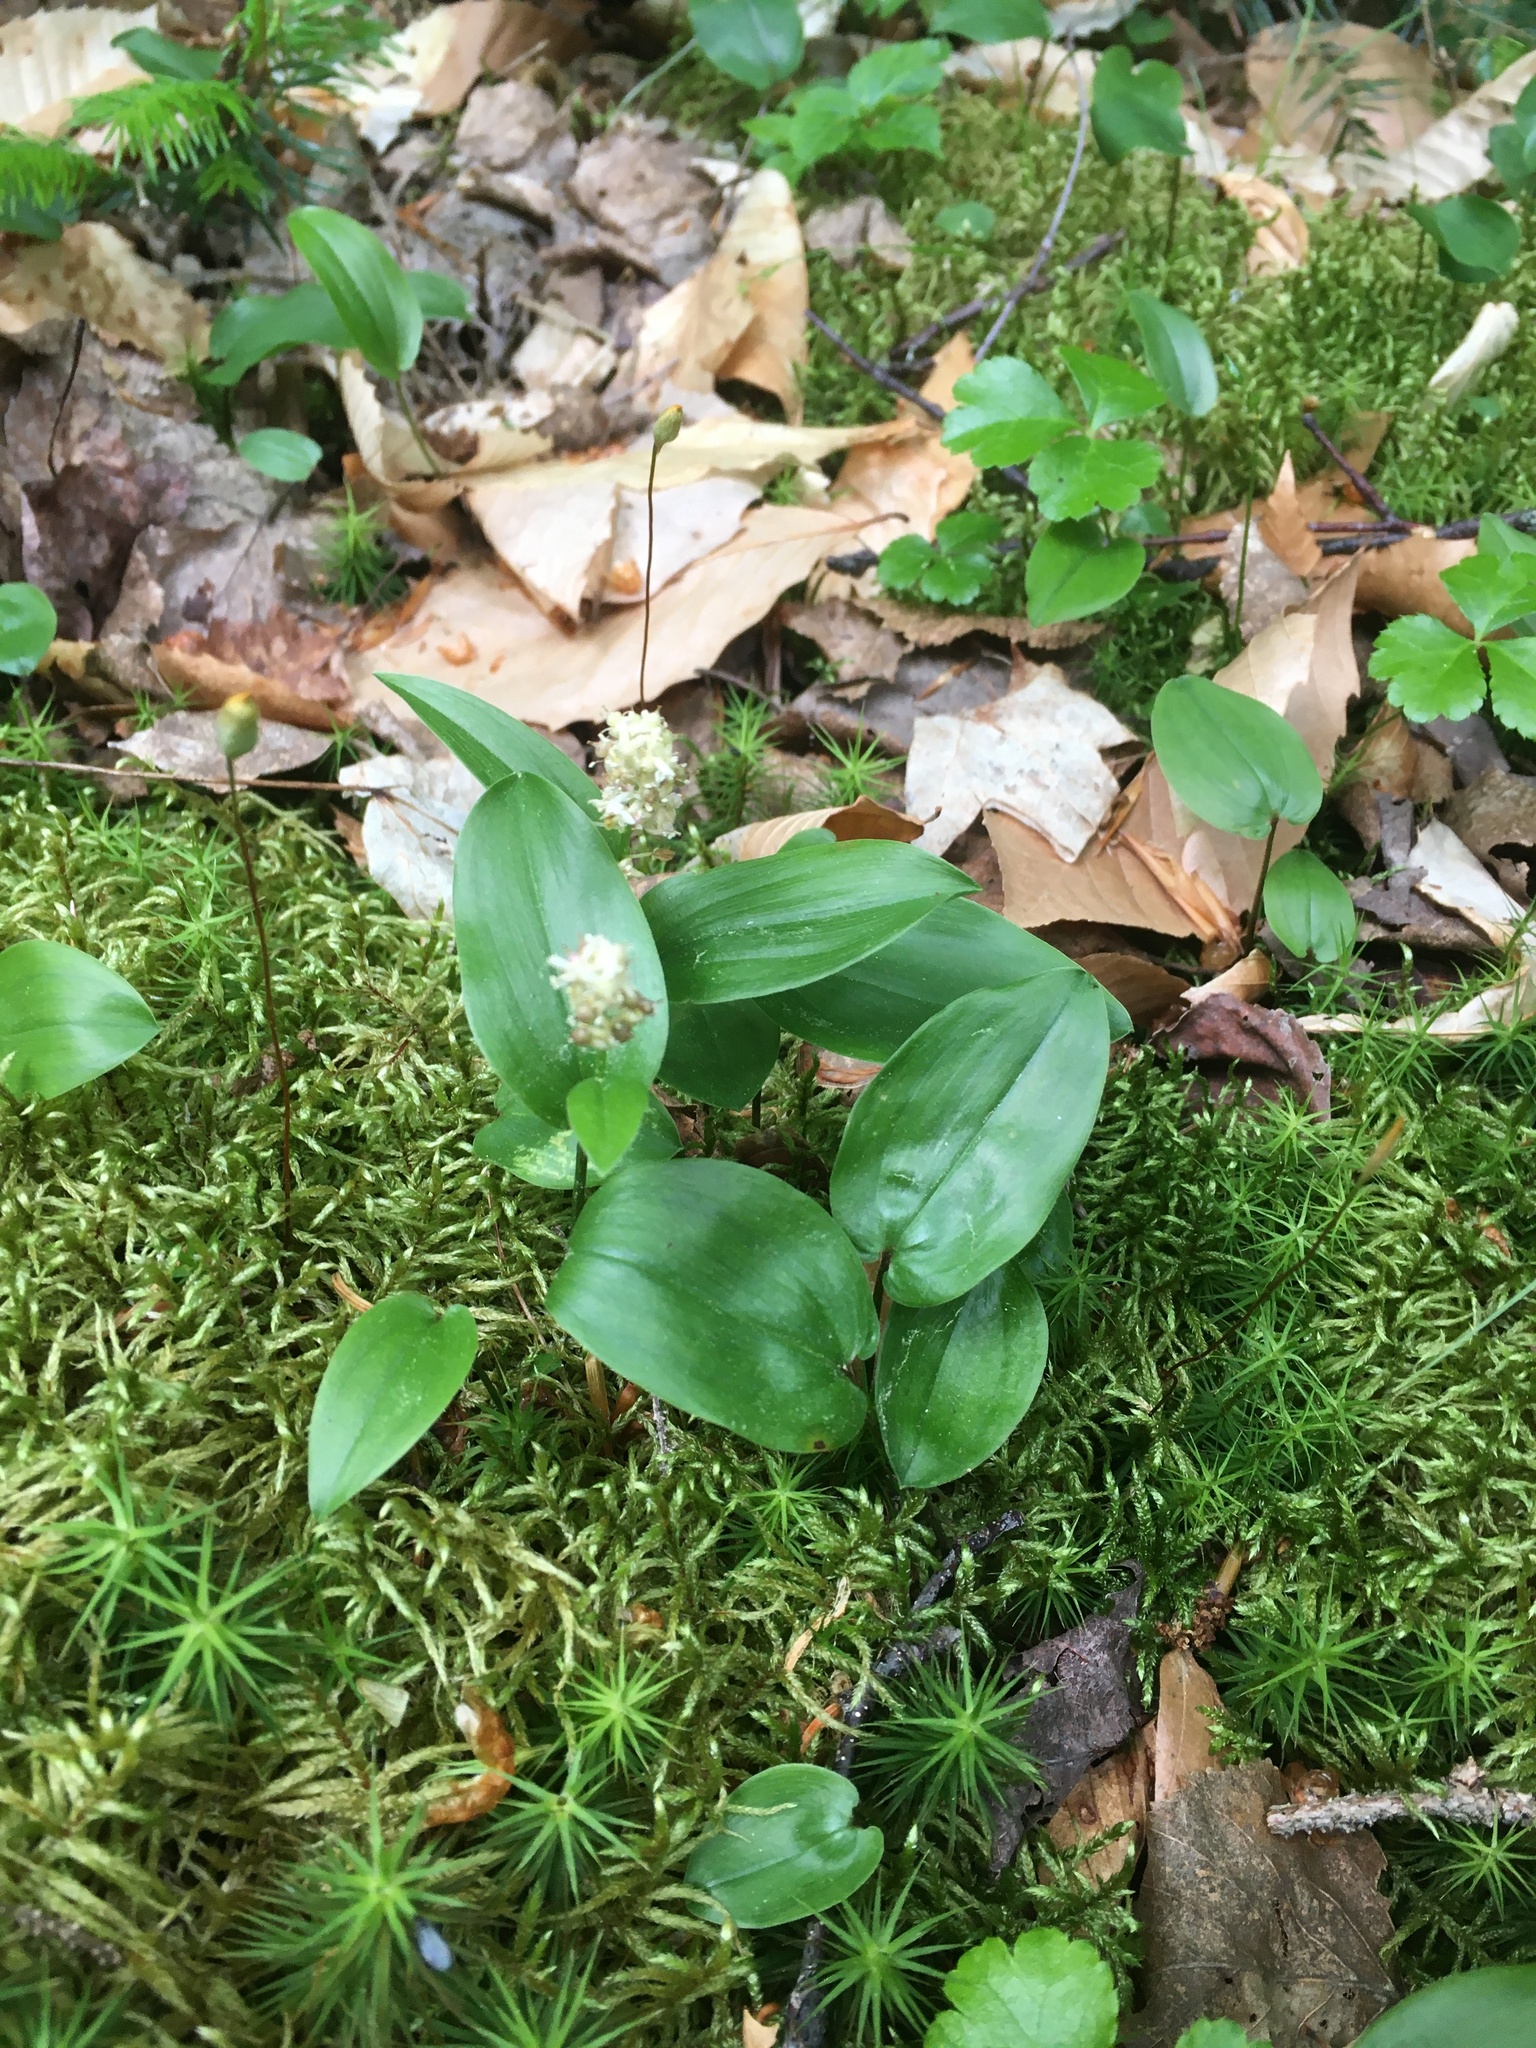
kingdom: Plantae
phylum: Tracheophyta
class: Liliopsida
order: Asparagales
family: Asparagaceae
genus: Maianthemum
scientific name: Maianthemum canadense
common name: False lily-of-the-valley
